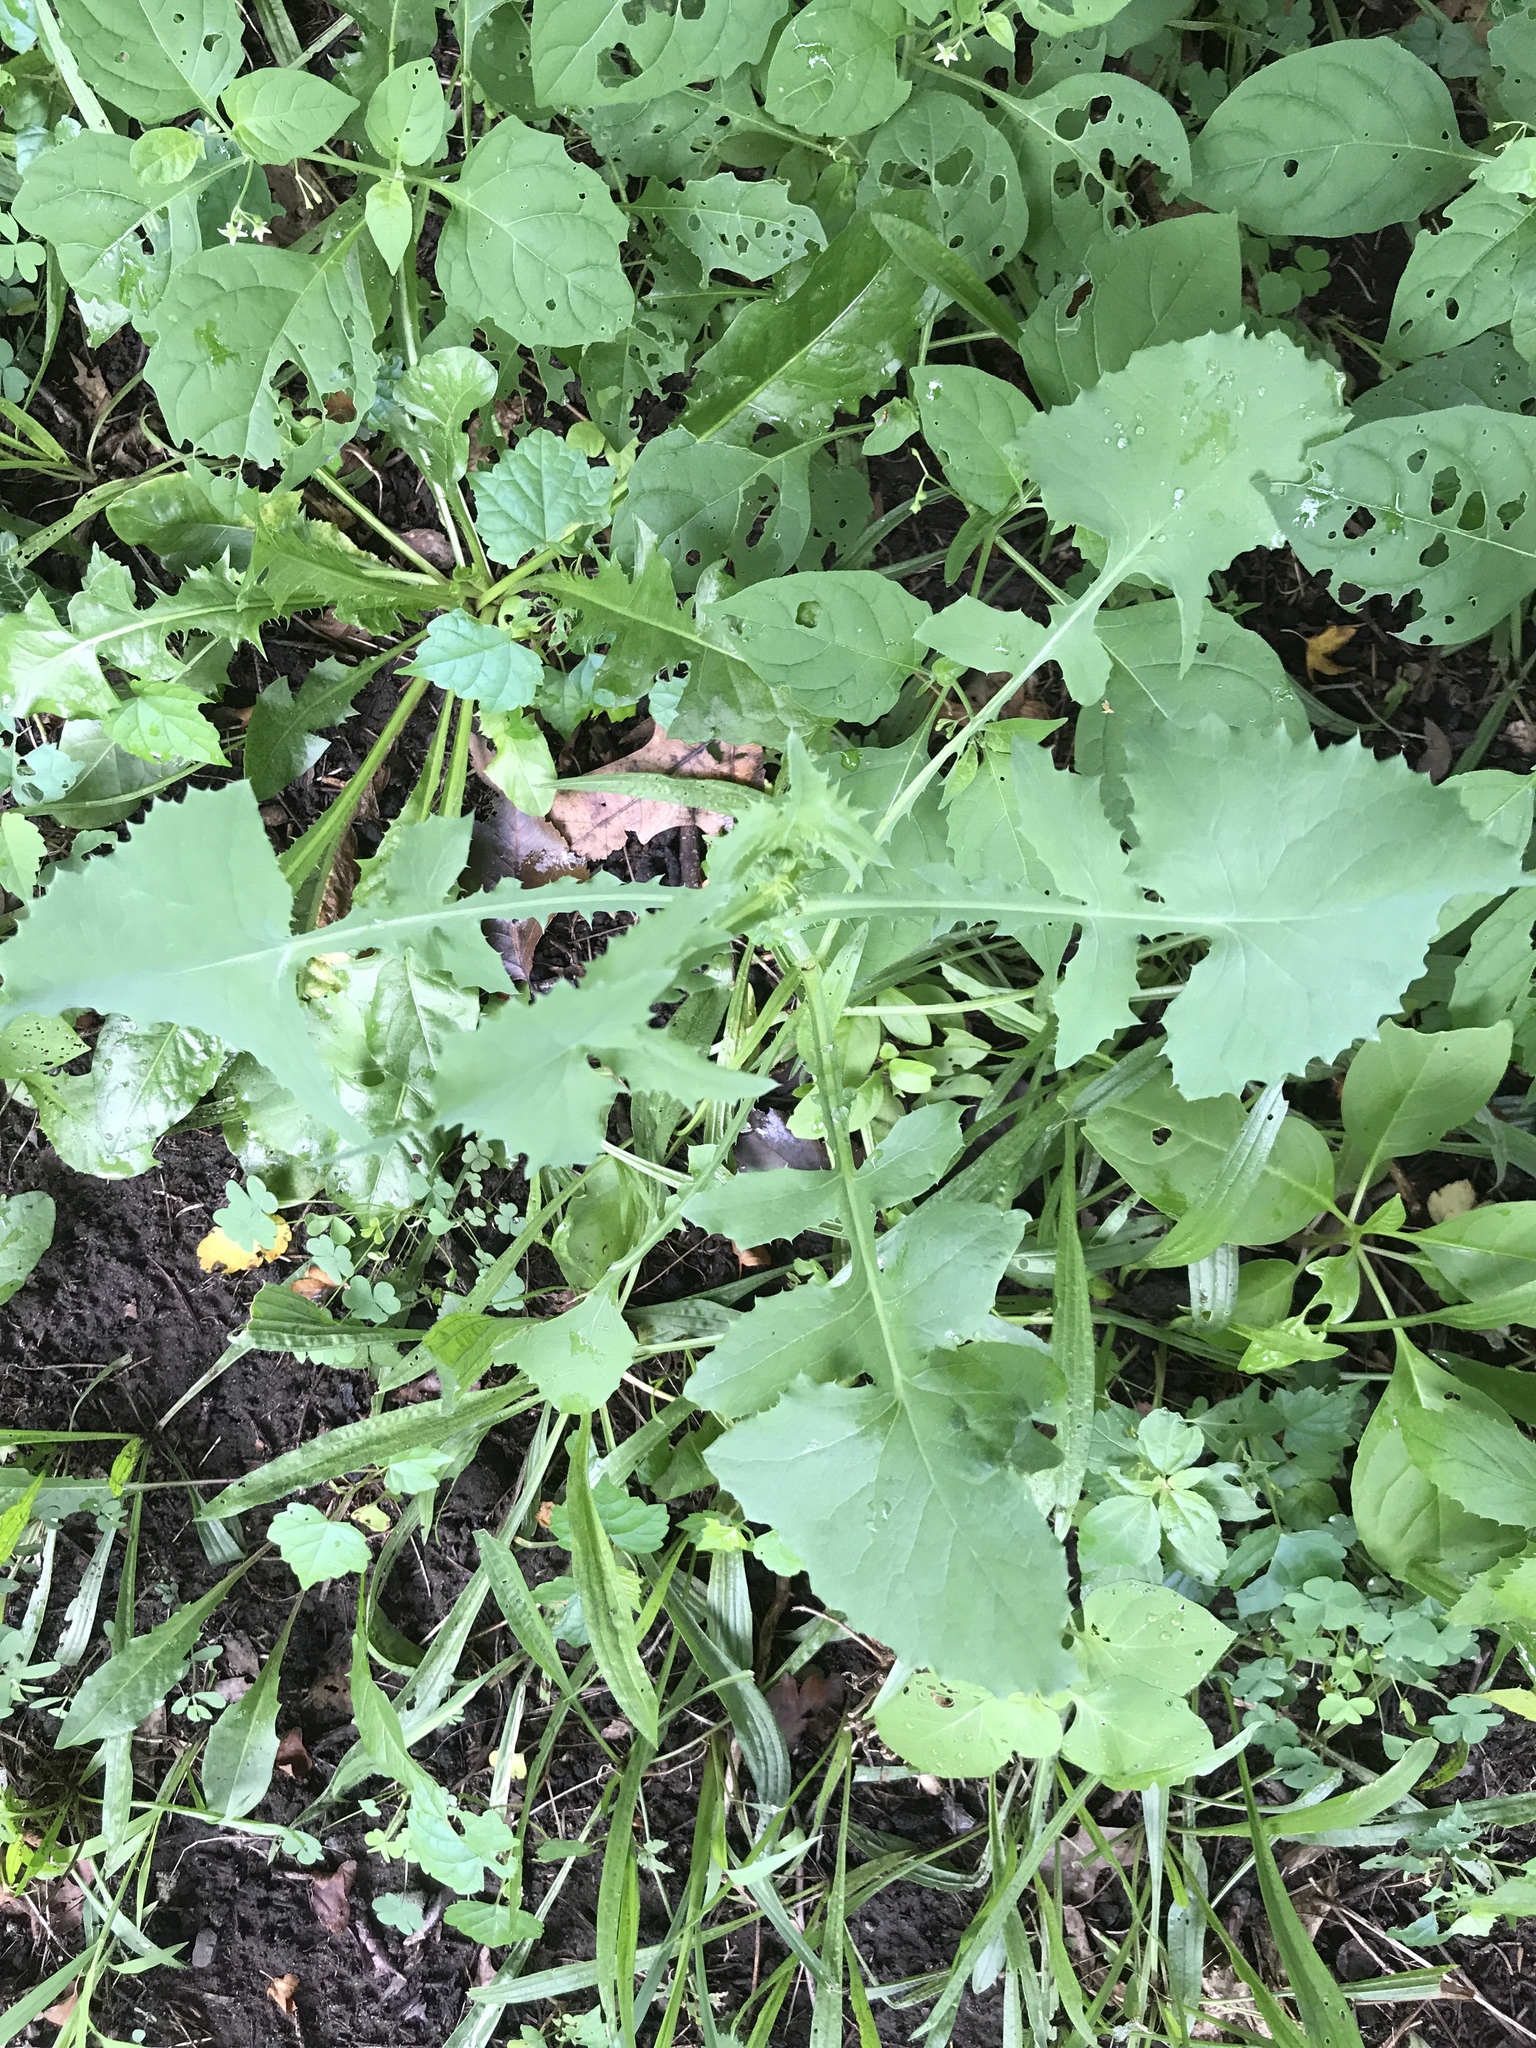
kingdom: Plantae
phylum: Tracheophyta
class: Magnoliopsida
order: Asterales
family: Asteraceae
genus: Sonchus
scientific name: Sonchus oleraceus
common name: Common sowthistle
